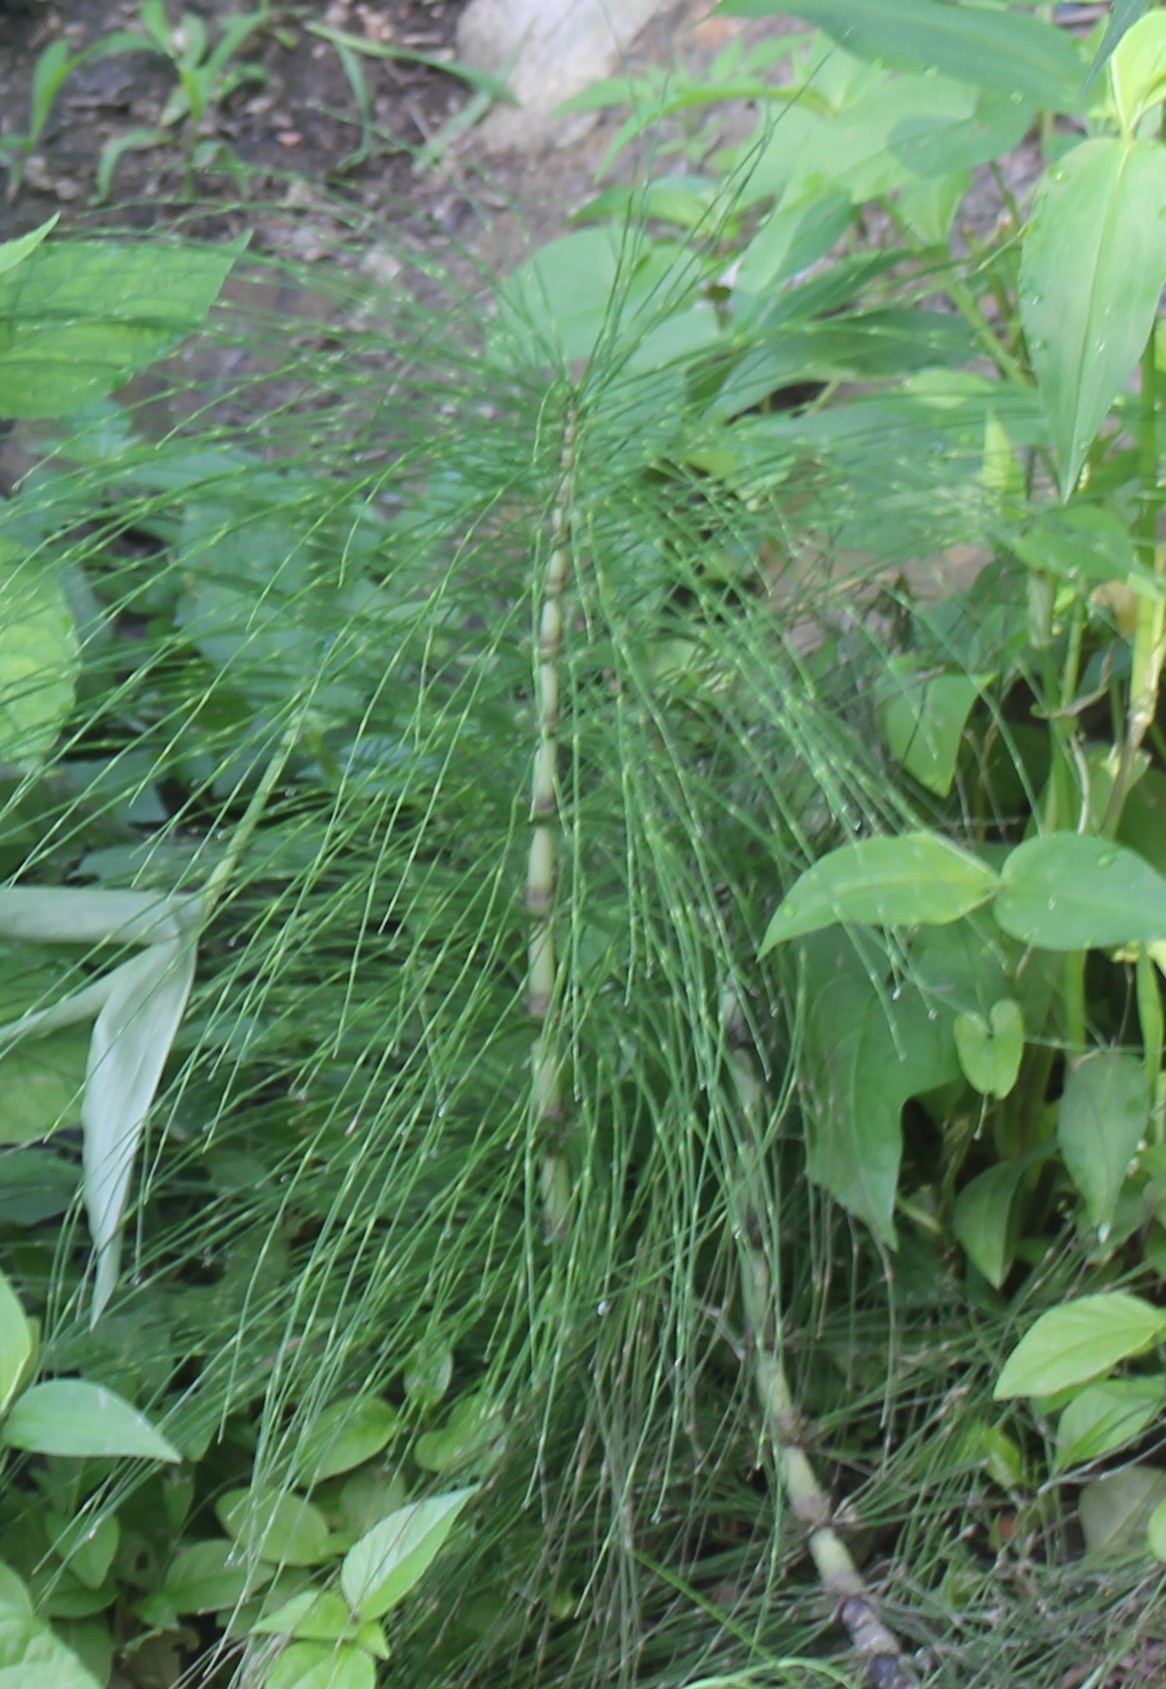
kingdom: Plantae
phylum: Tracheophyta
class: Polypodiopsida
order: Equisetales
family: Equisetaceae
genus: Equisetum
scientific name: Equisetum telmateia
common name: Great horsetail
